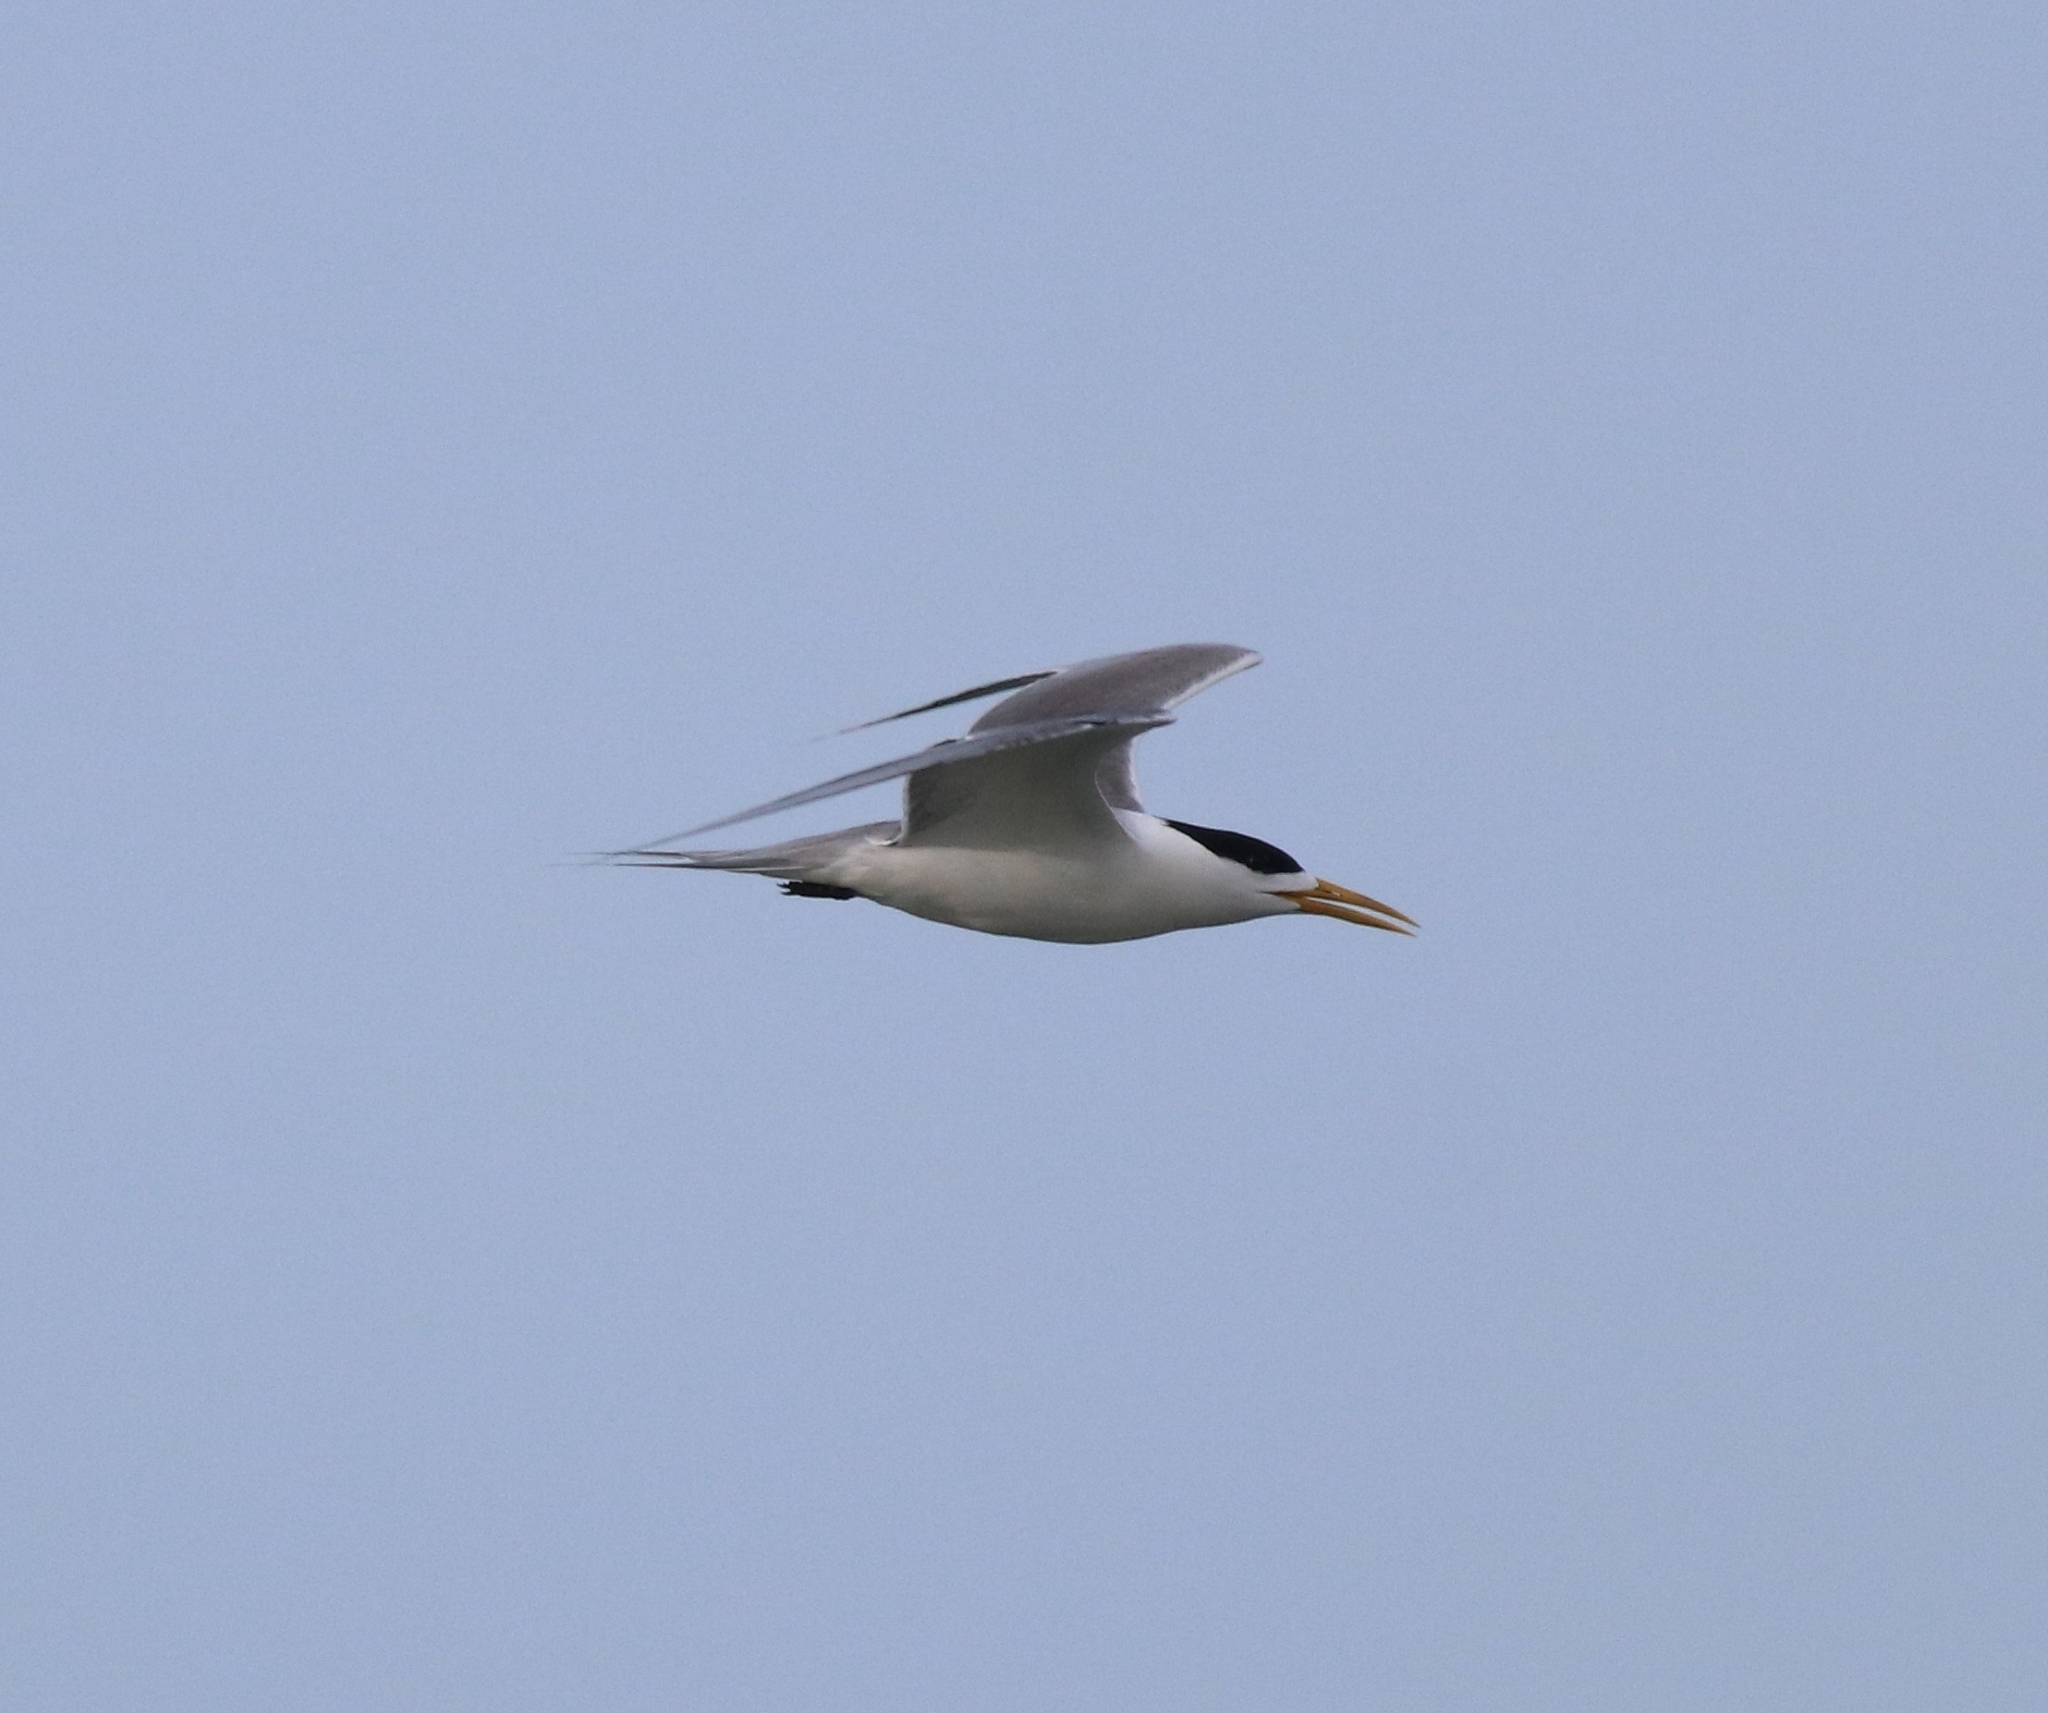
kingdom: Animalia
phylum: Chordata
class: Aves
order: Charadriiformes
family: Laridae
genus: Thalasseus
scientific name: Thalasseus bergii
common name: Greater crested tern
